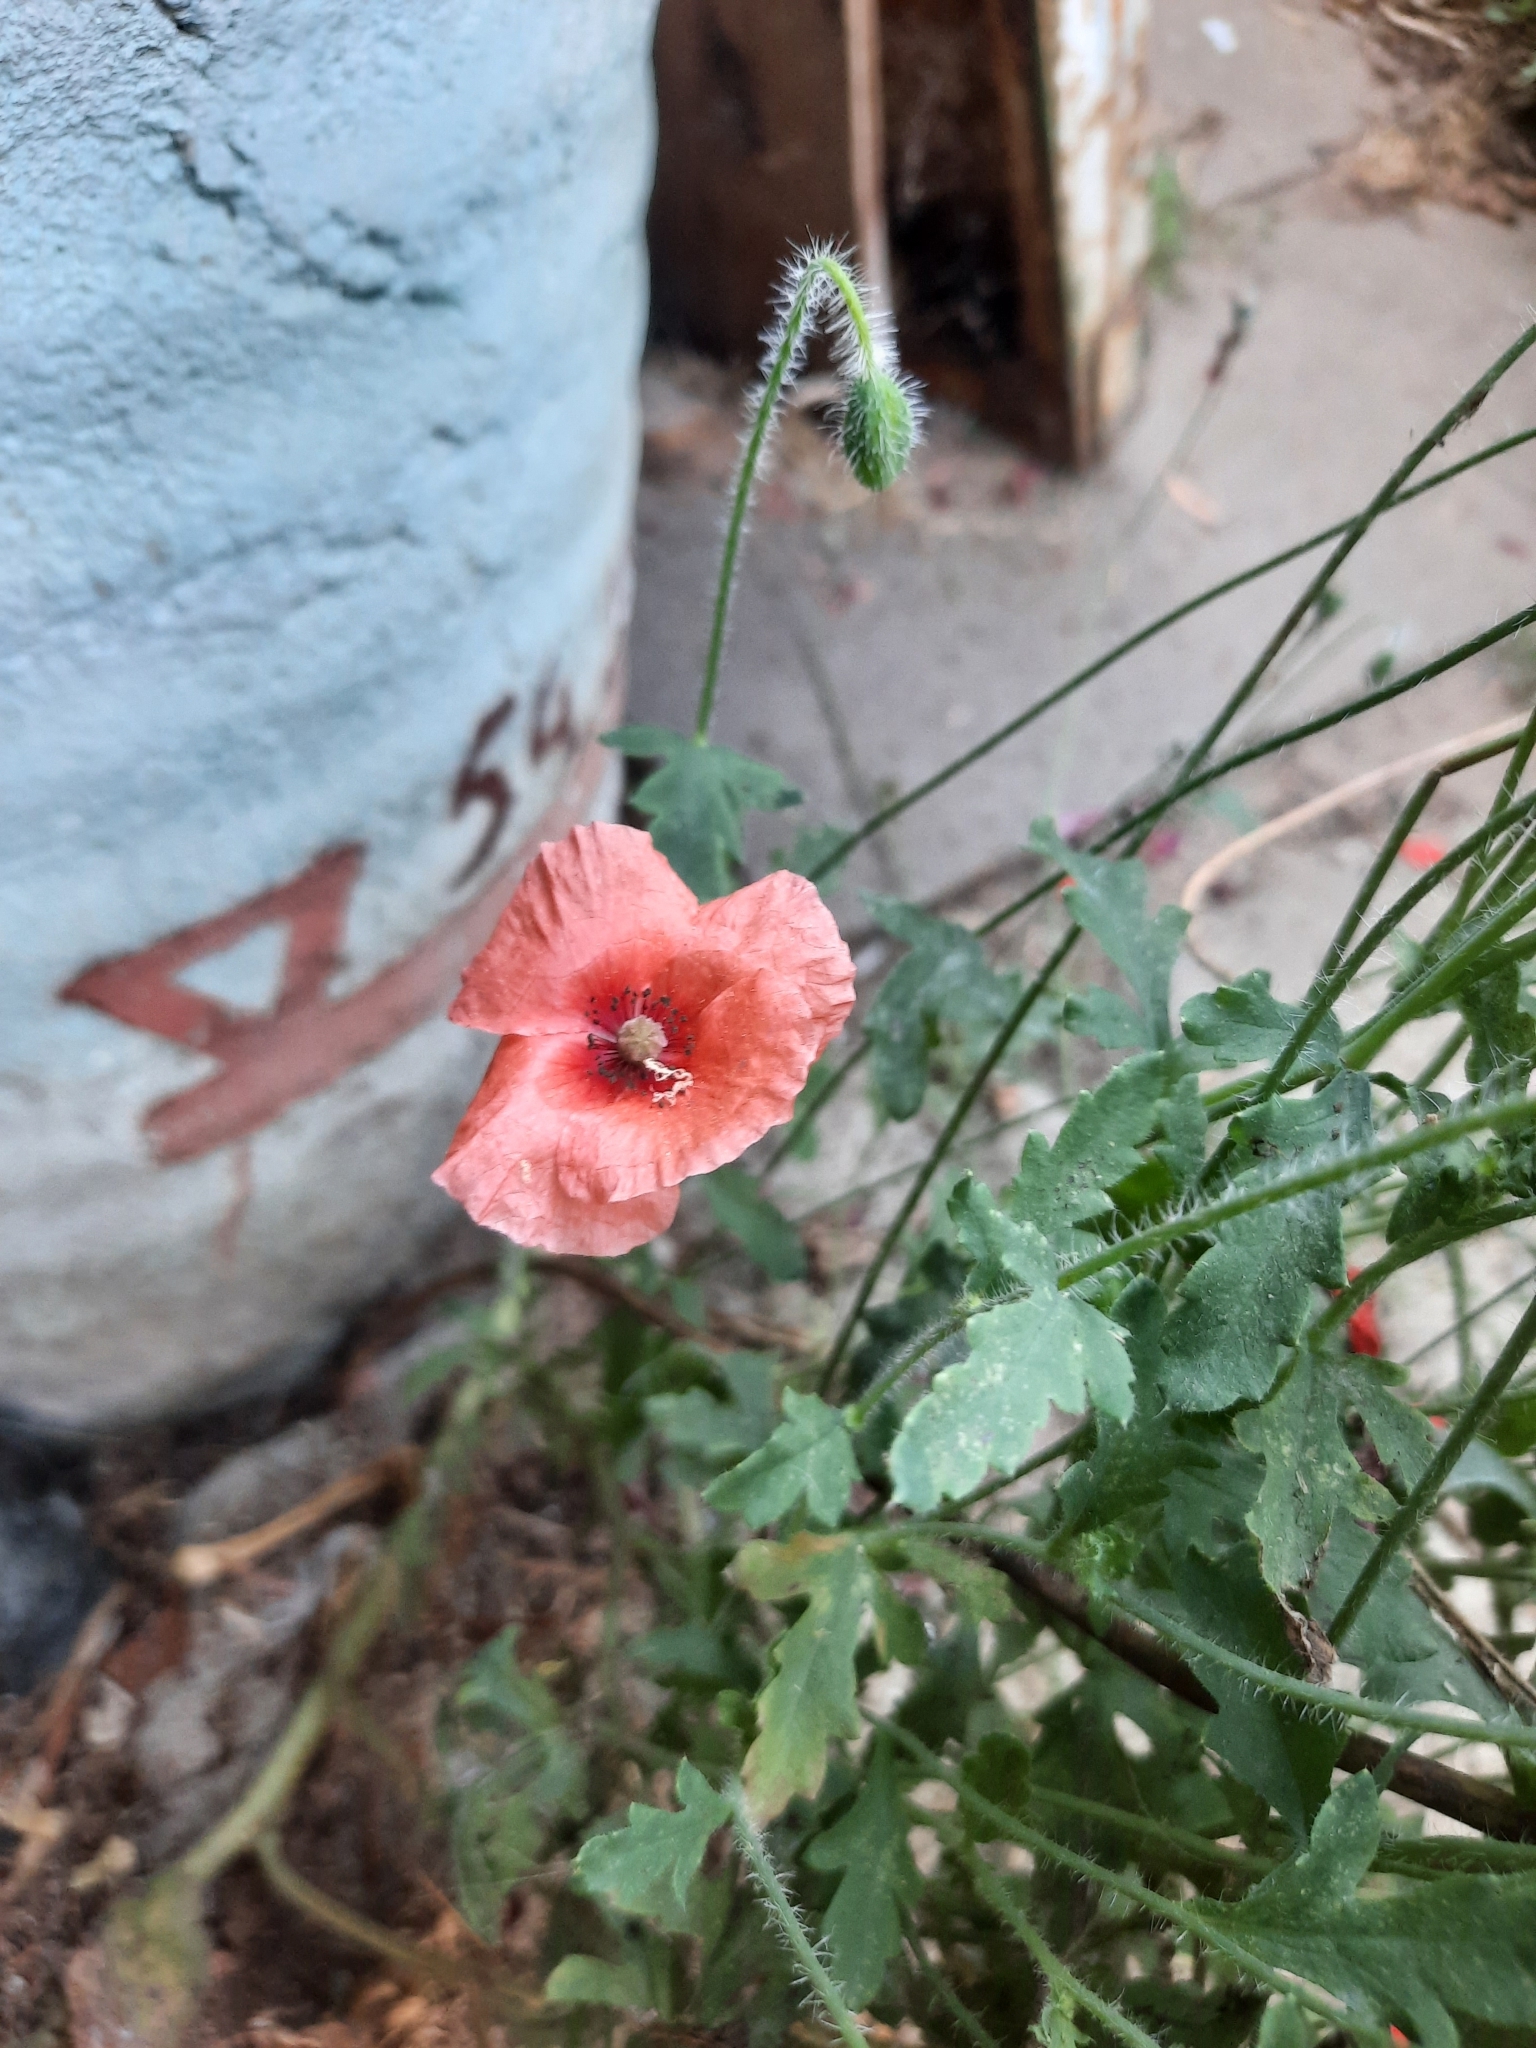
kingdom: Plantae
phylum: Tracheophyta
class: Magnoliopsida
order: Ranunculales
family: Papaveraceae
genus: Papaver
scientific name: Papaver dubium
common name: Long-headed poppy
